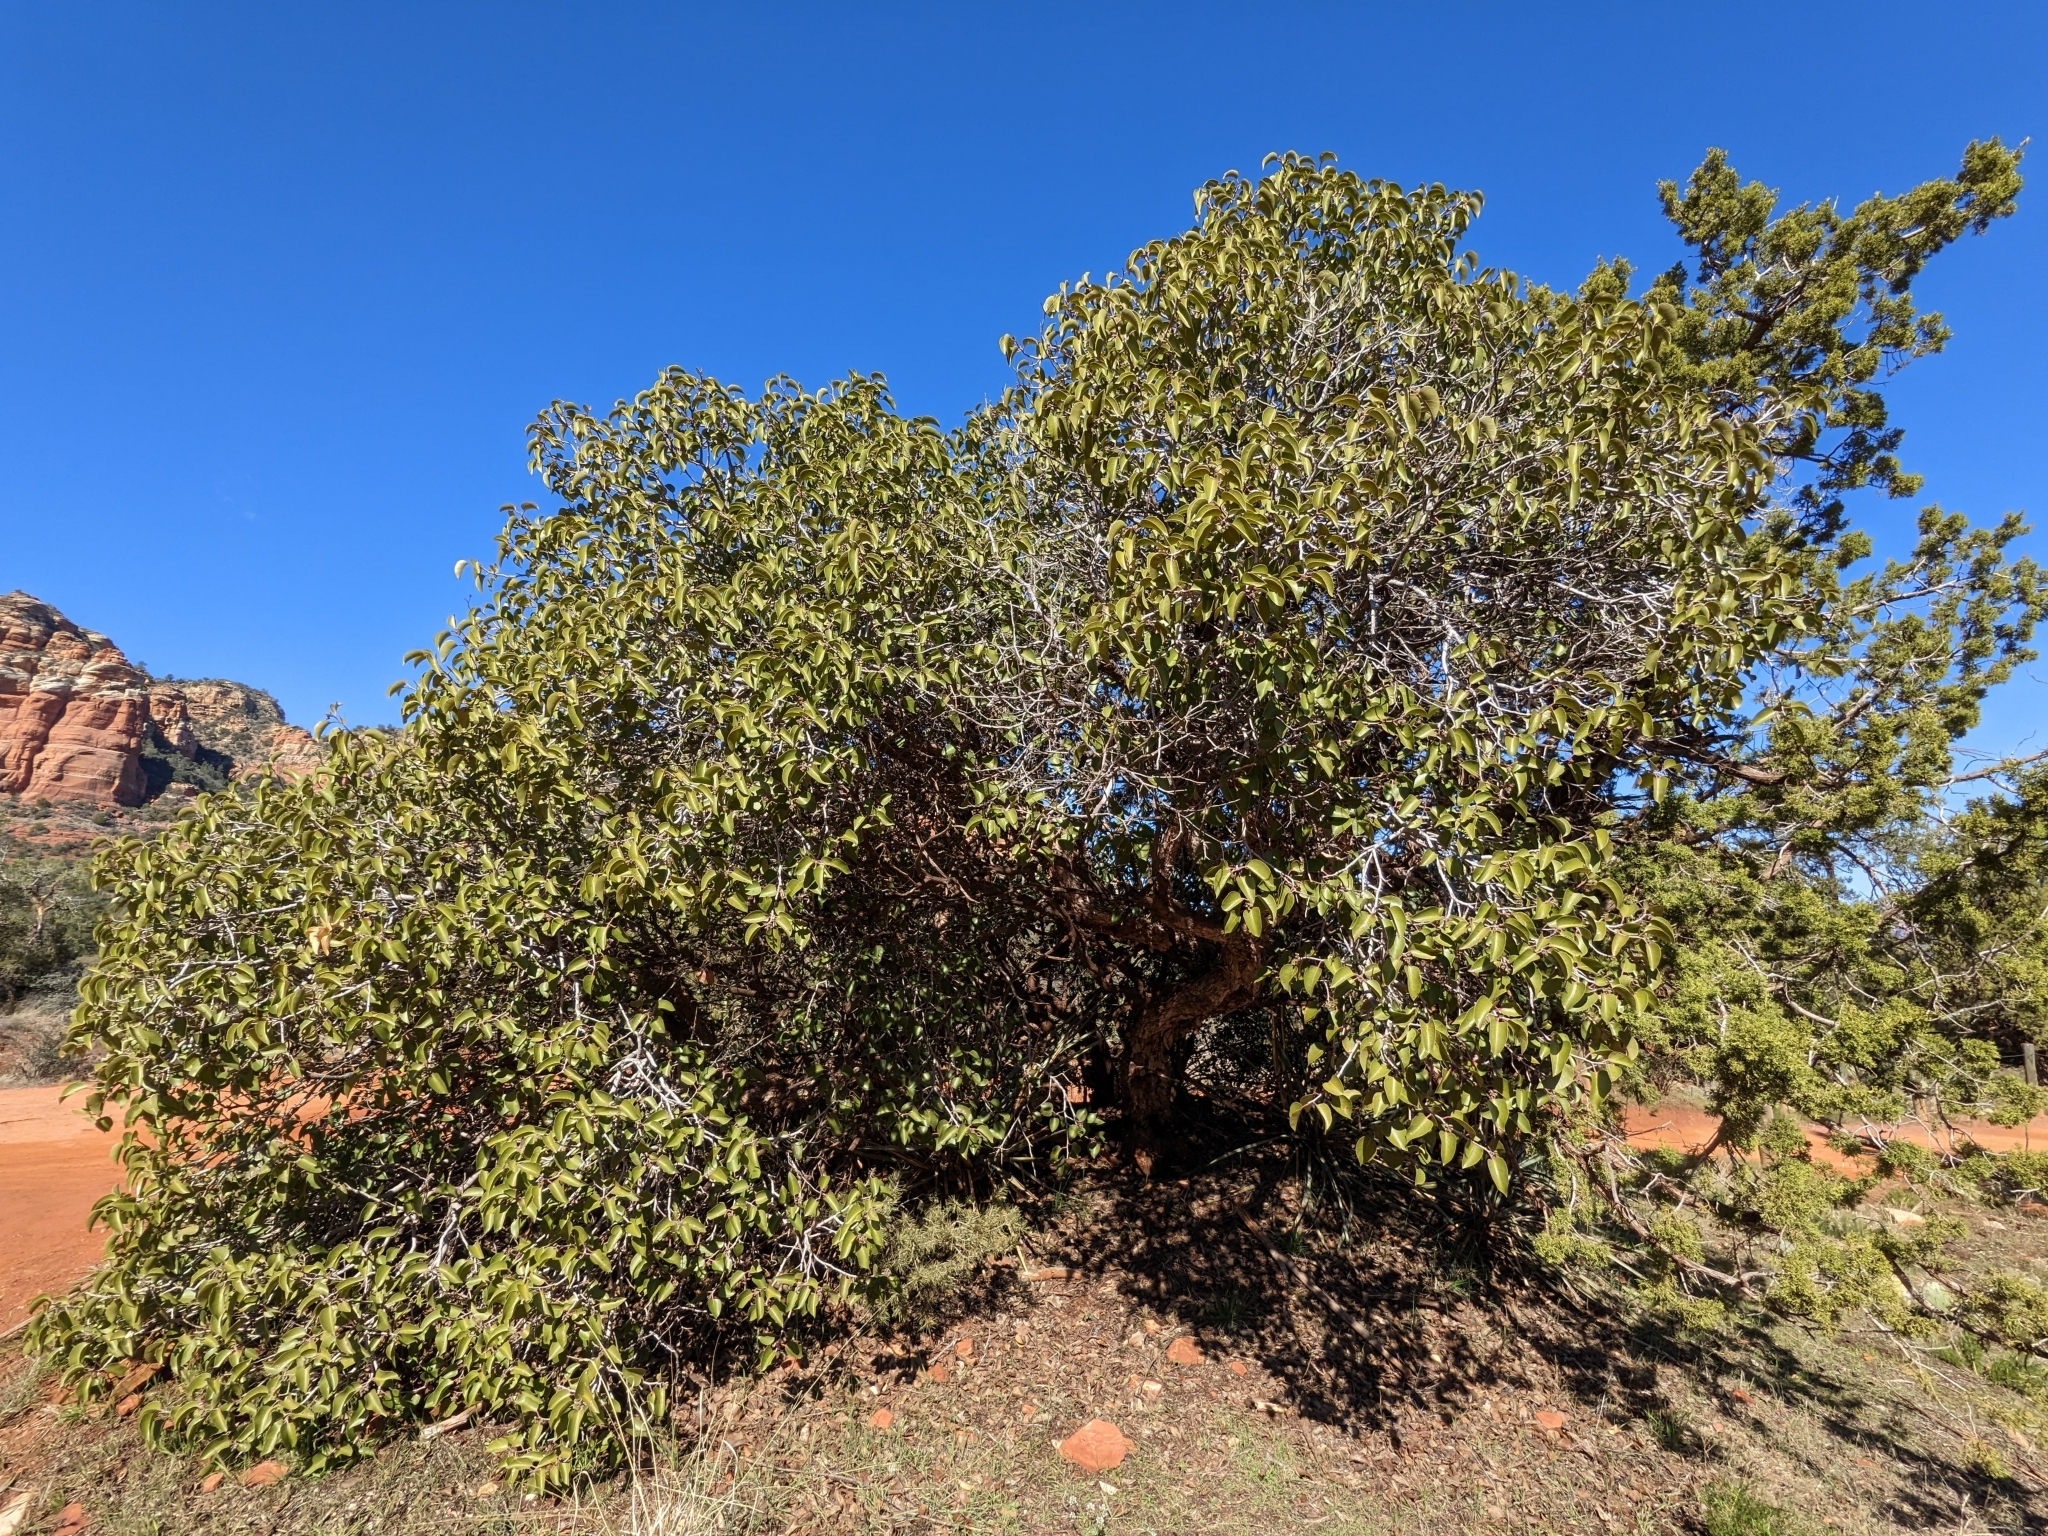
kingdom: Plantae
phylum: Tracheophyta
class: Magnoliopsida
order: Sapindales
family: Anacardiaceae
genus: Rhus
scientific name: Rhus ovata
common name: Sugar sumac
